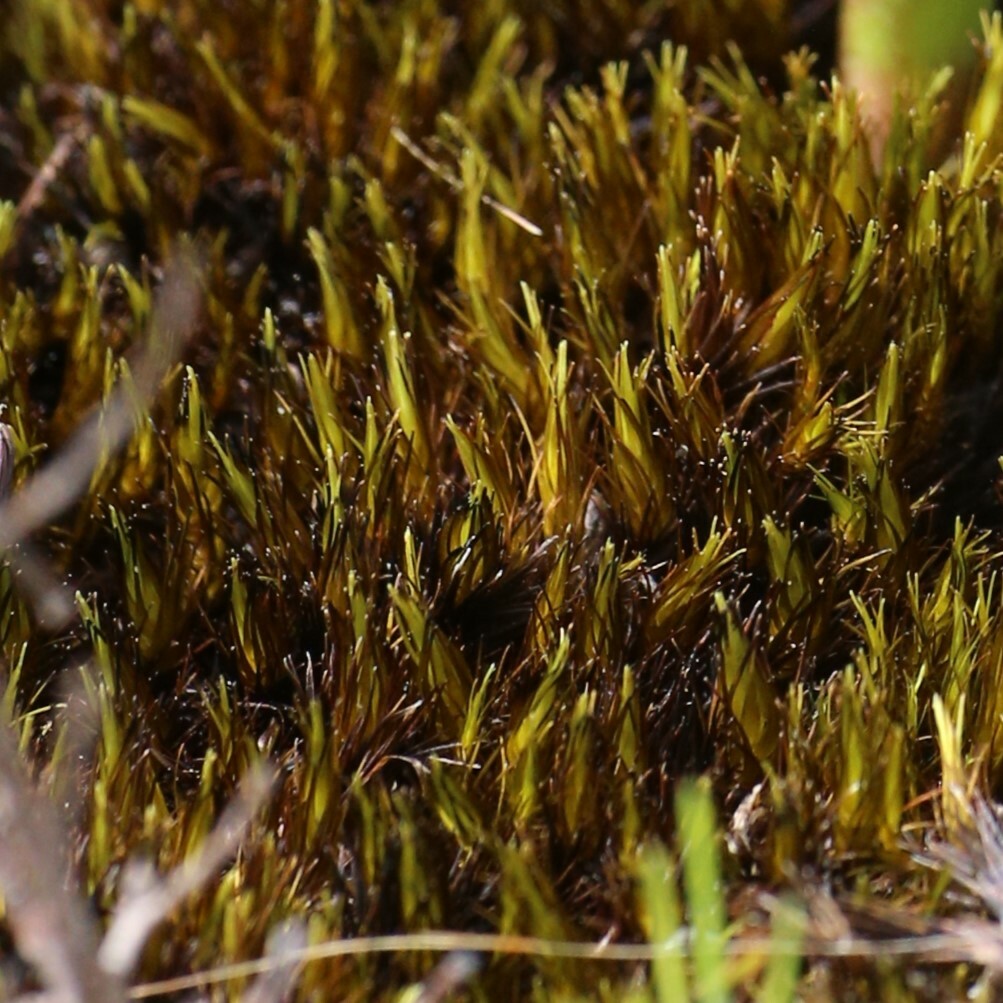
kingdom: Plantae
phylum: Bryophyta
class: Bryopsida
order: Dicranales
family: Leucobryaceae
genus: Campylopus
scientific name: Campylopus bicolor
